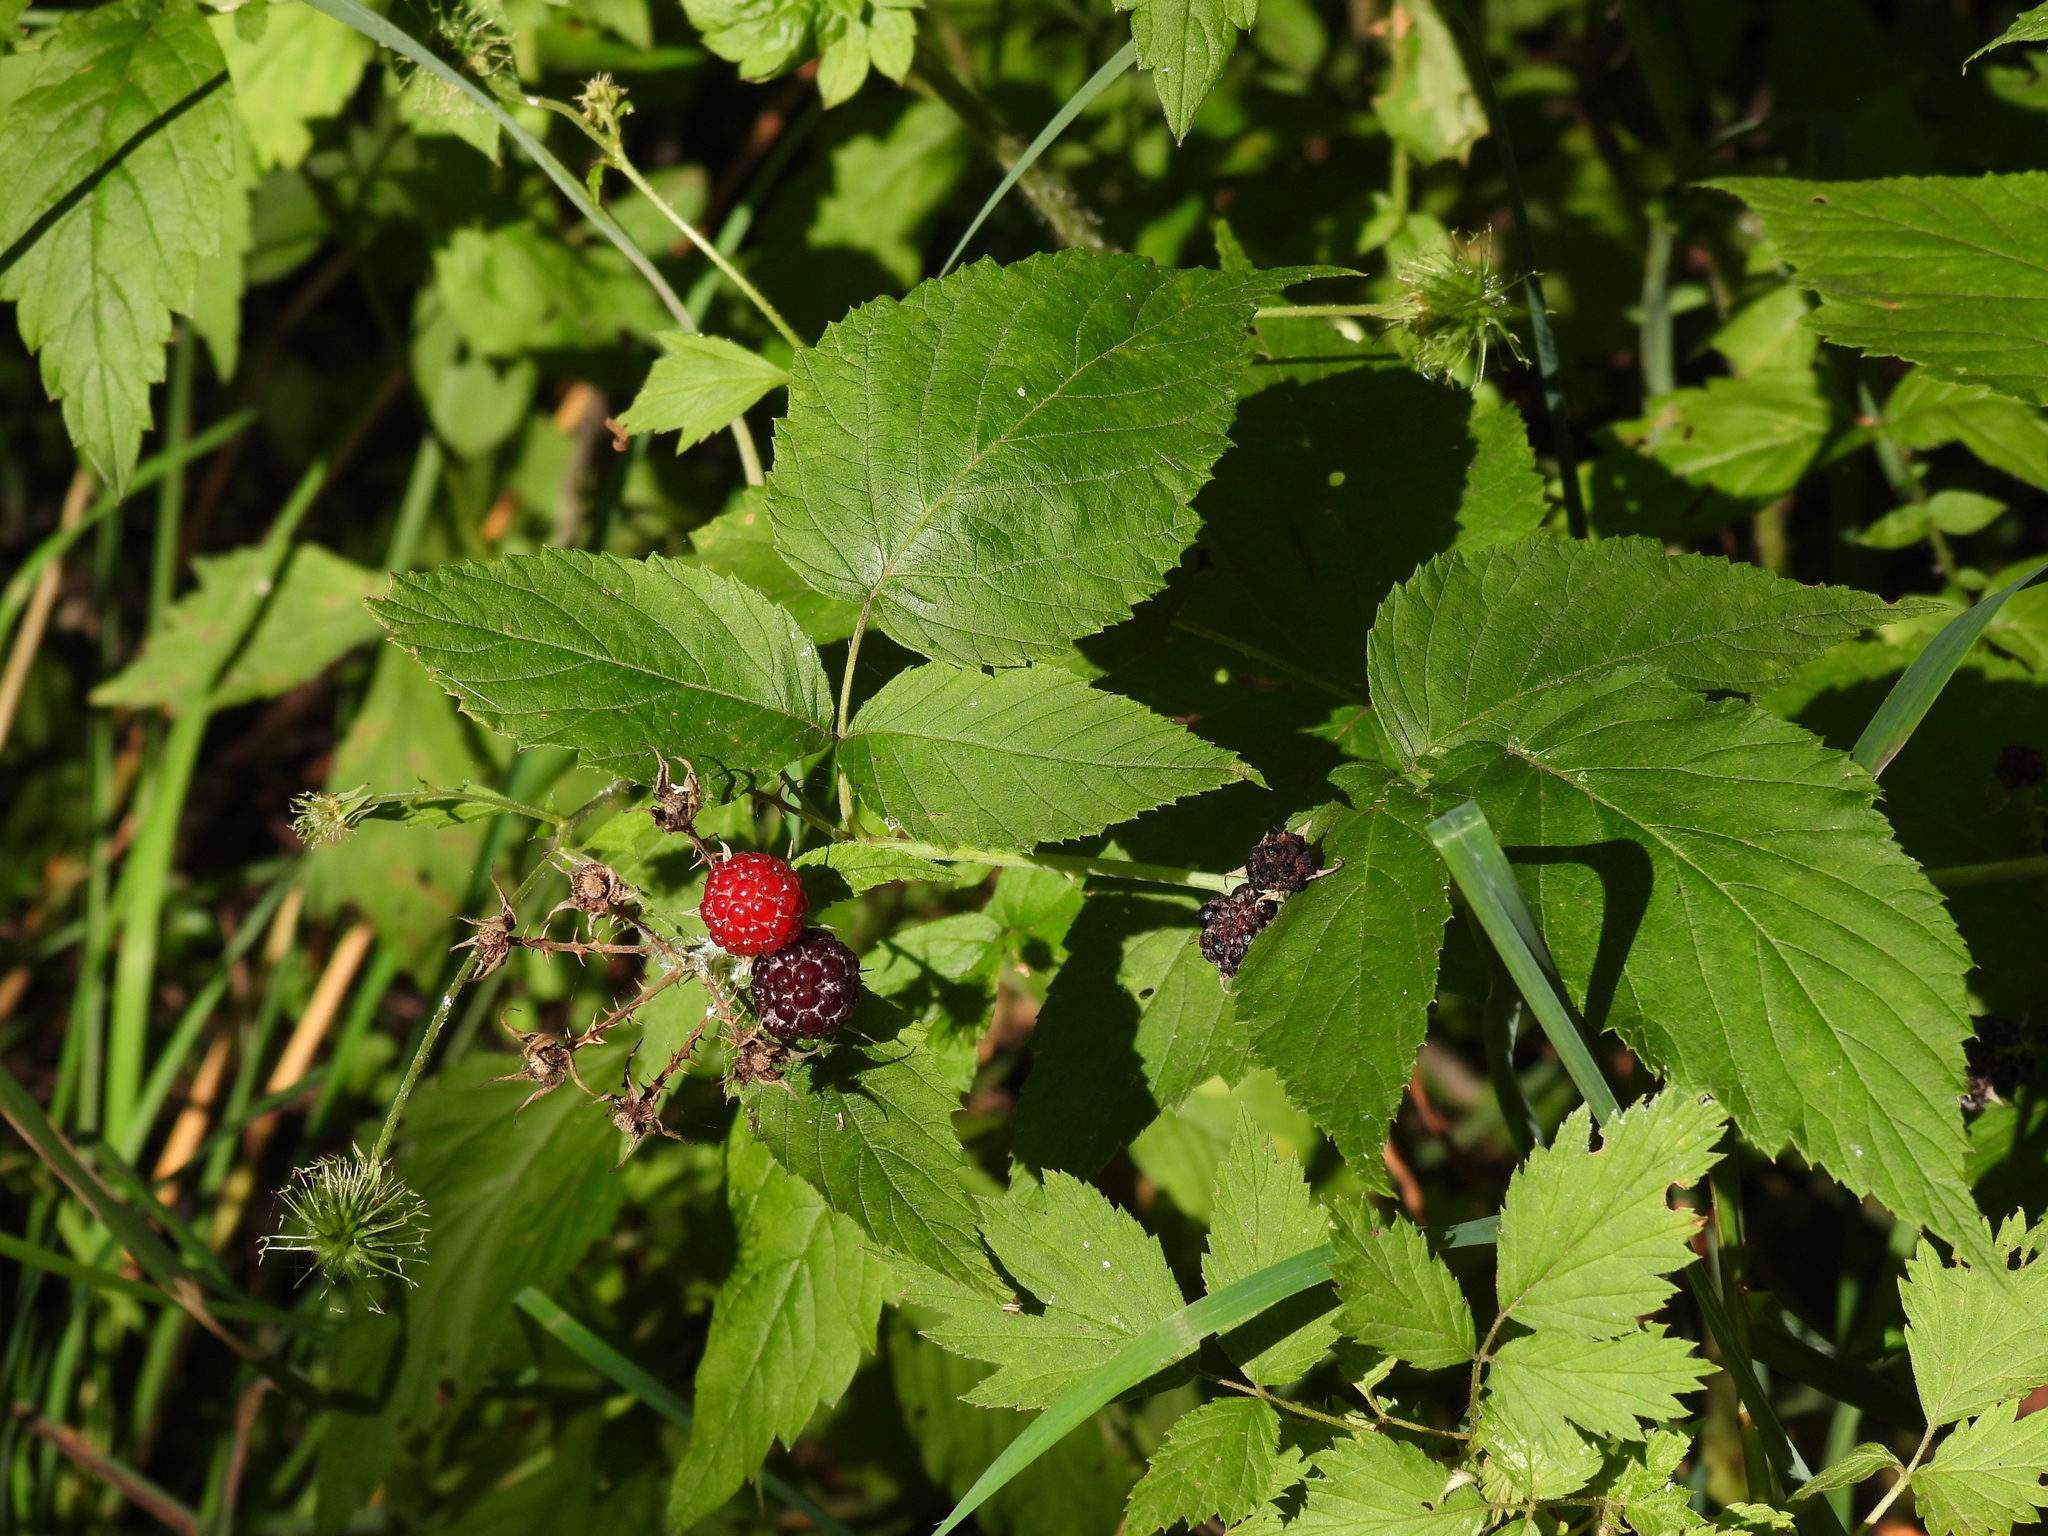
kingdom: Plantae
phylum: Tracheophyta
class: Magnoliopsida
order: Rosales
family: Rosaceae
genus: Rubus
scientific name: Rubus occidentalis
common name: Black raspberry
